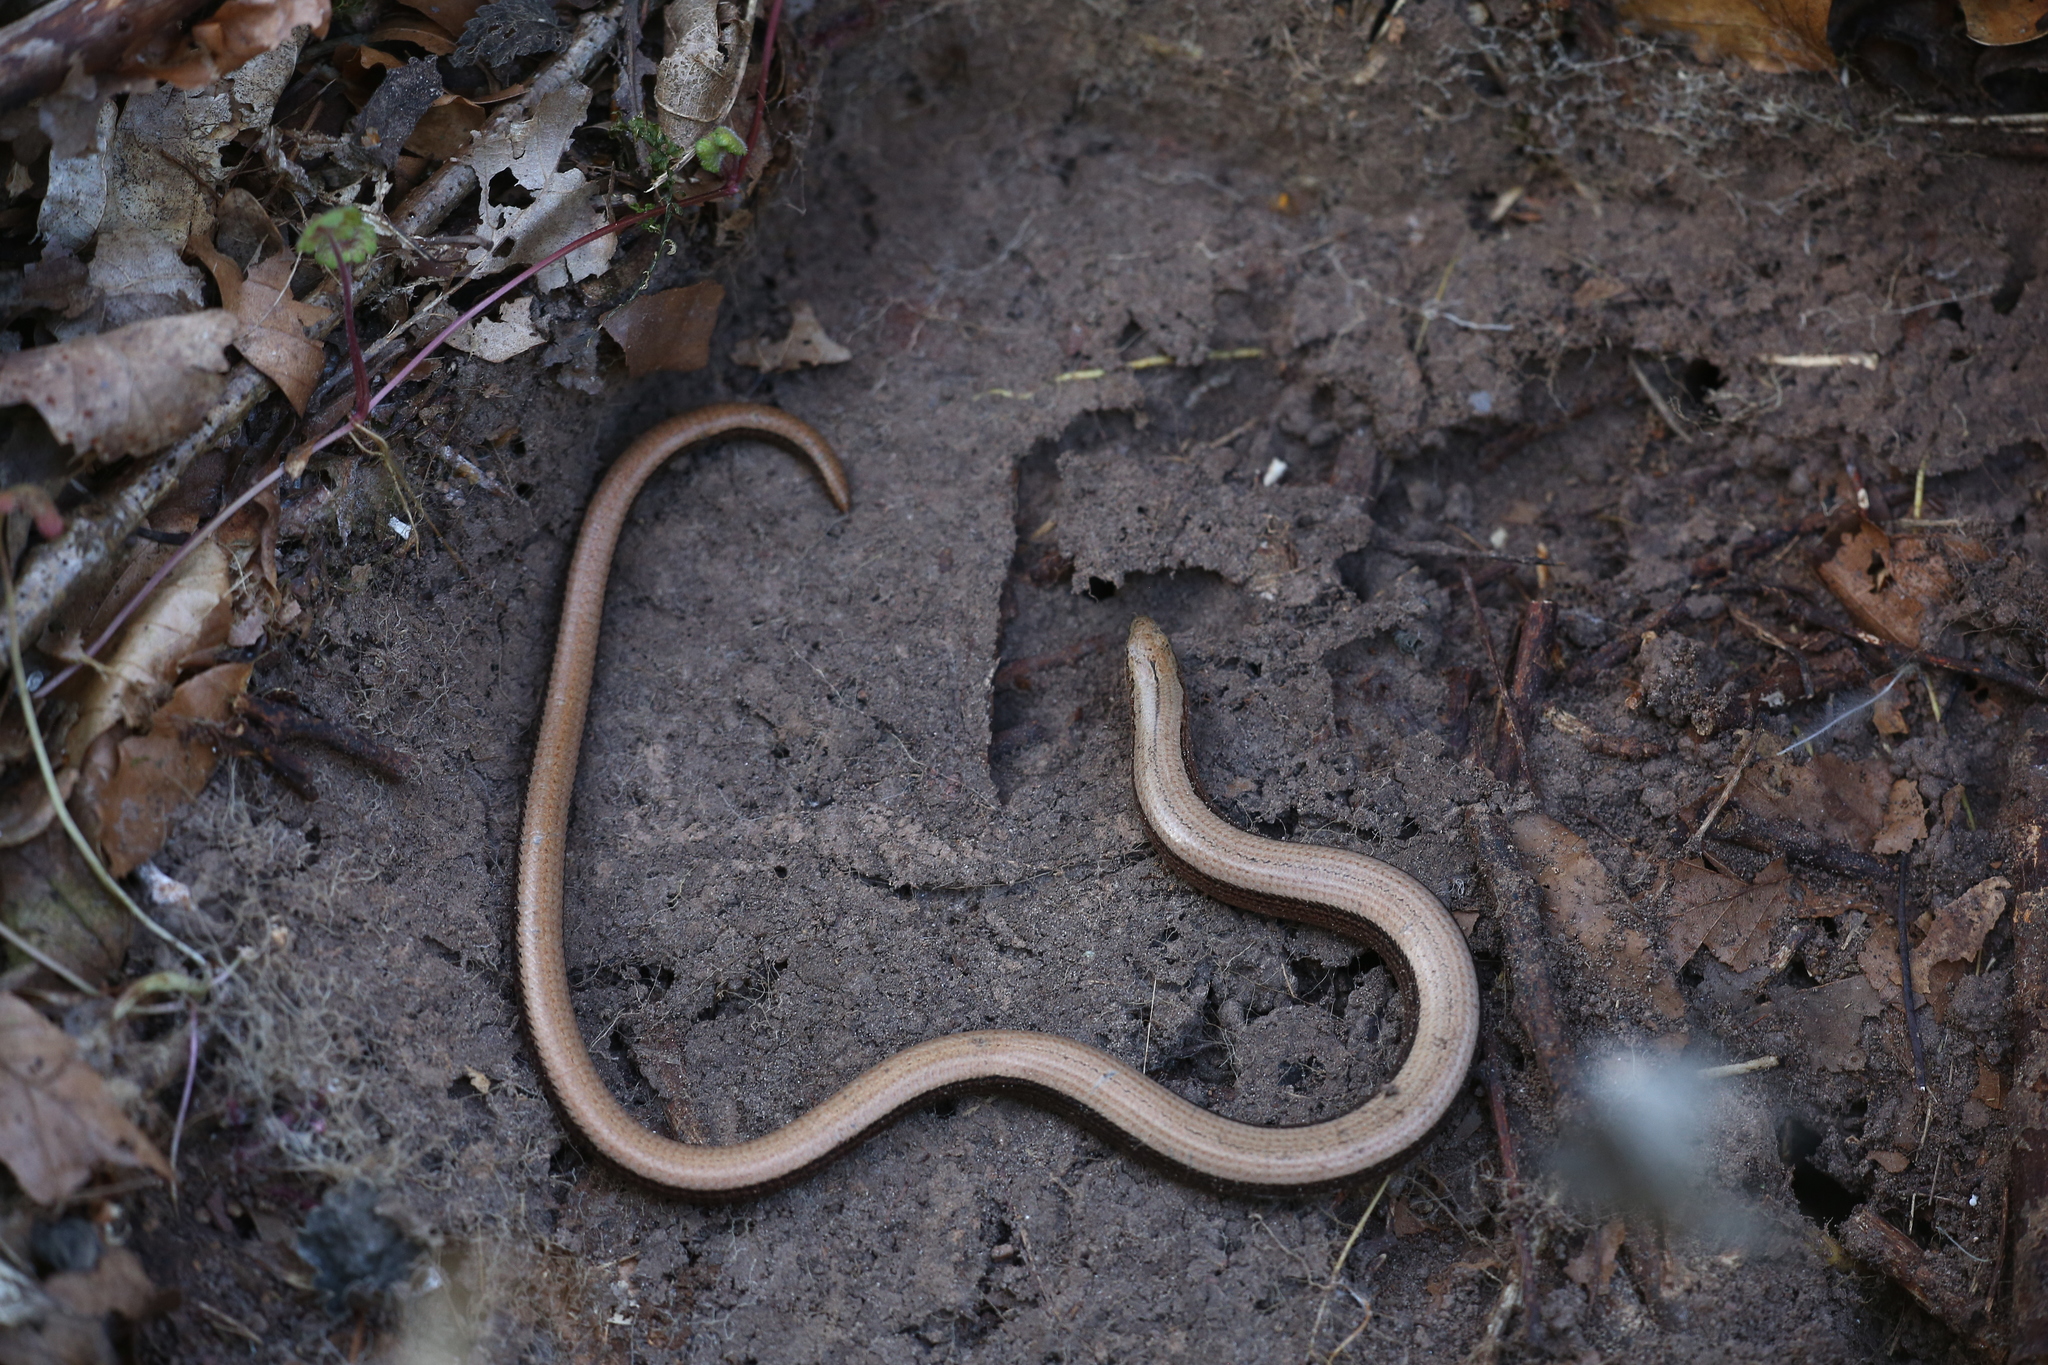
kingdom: Animalia
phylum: Chordata
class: Squamata
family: Anguidae
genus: Anguis
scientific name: Anguis fragilis
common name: Slow worm
